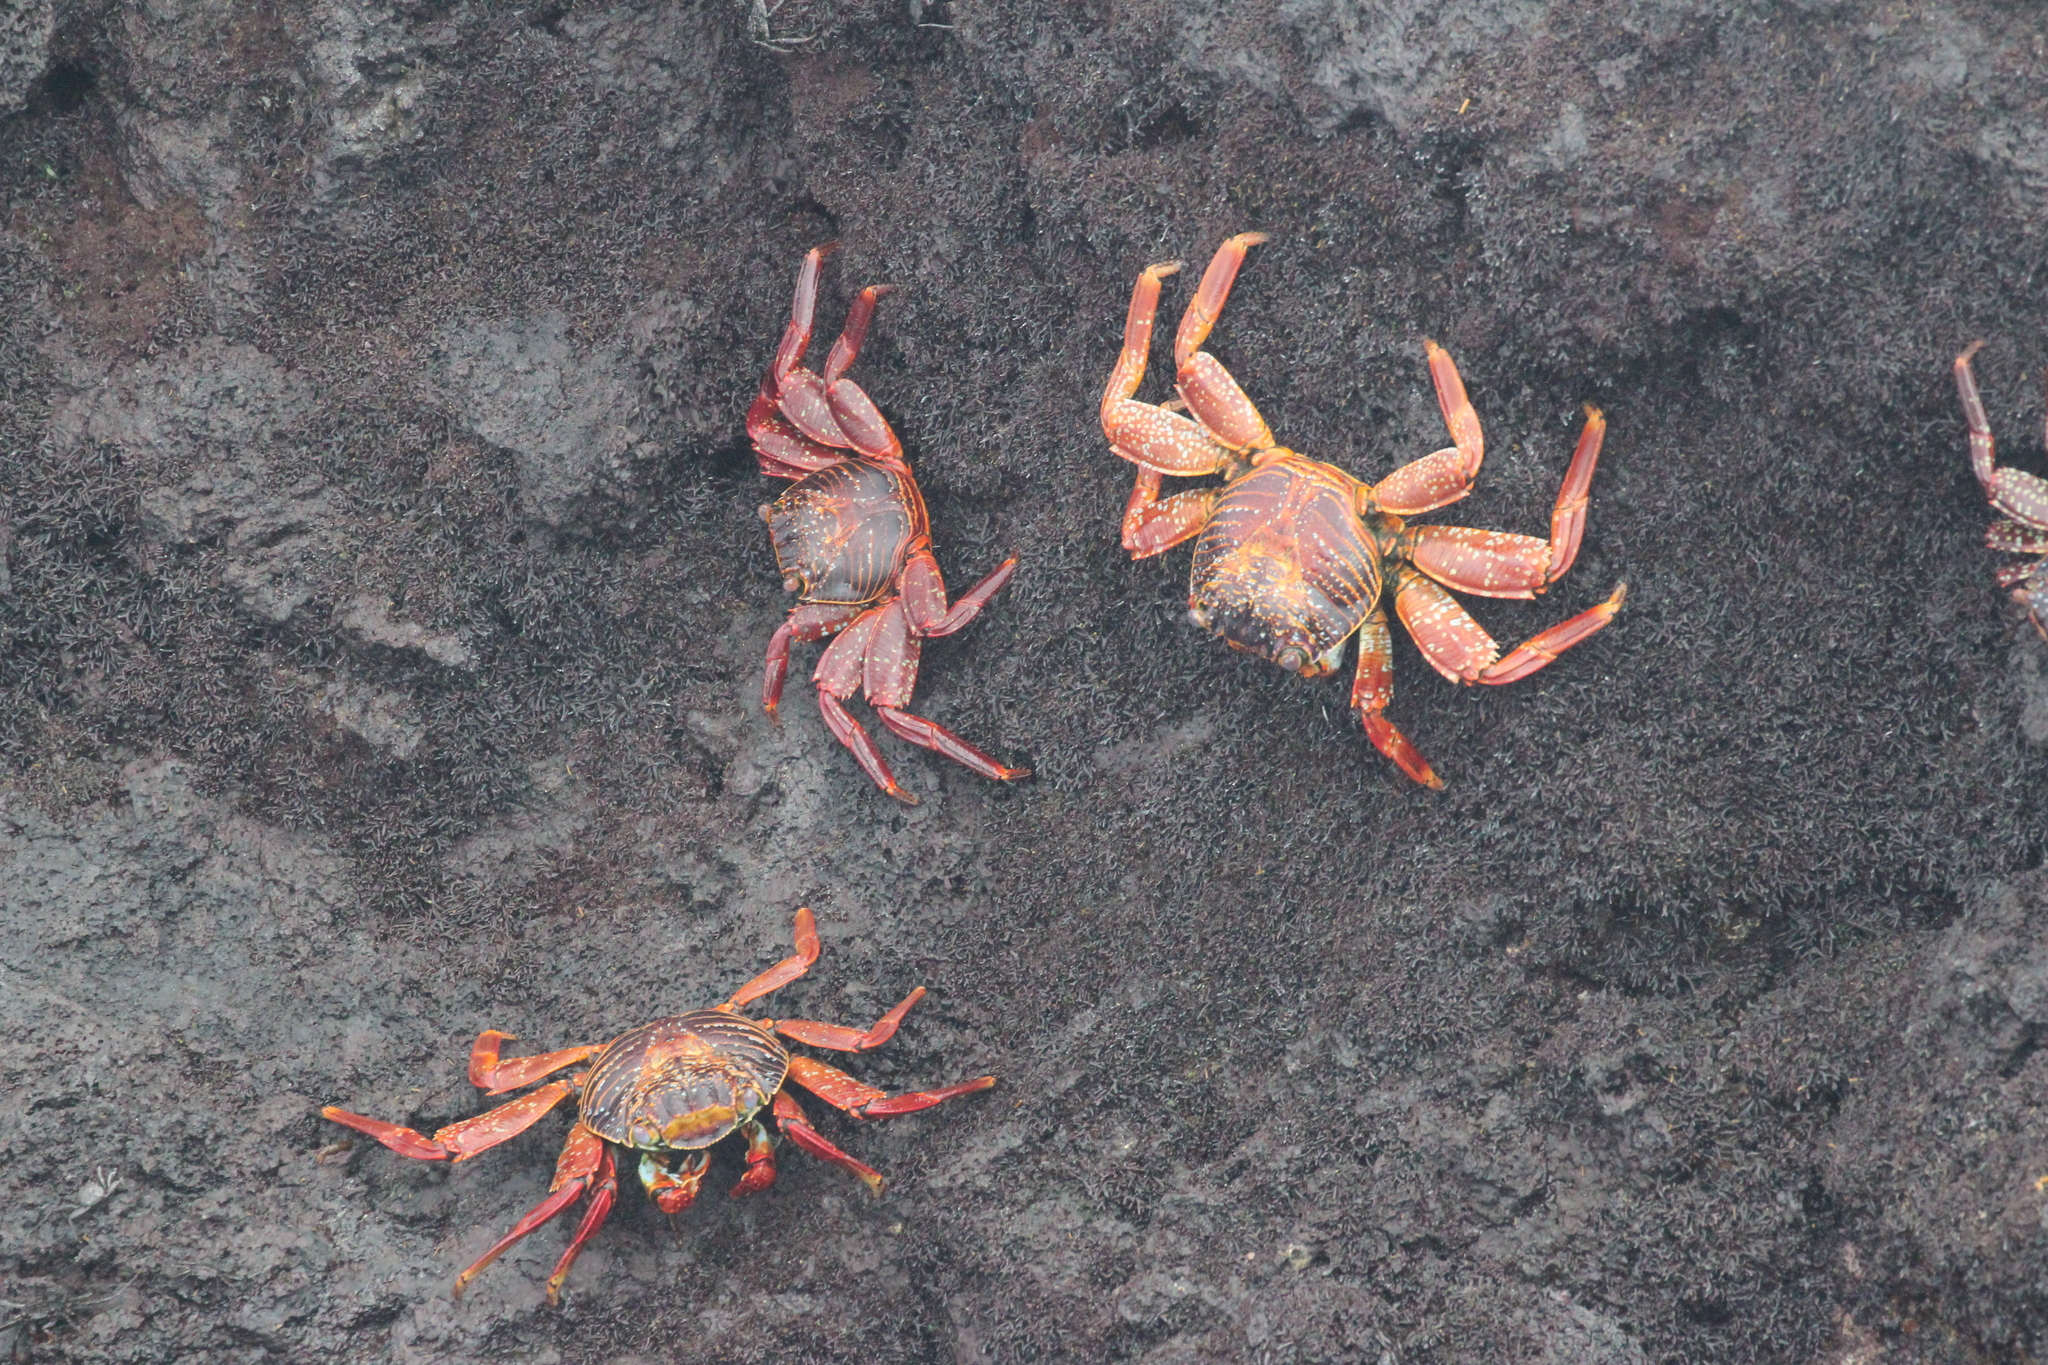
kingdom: Animalia
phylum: Arthropoda
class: Malacostraca
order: Decapoda
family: Grapsidae
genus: Grapsus
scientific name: Grapsus grapsus
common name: Sally lightfoot
